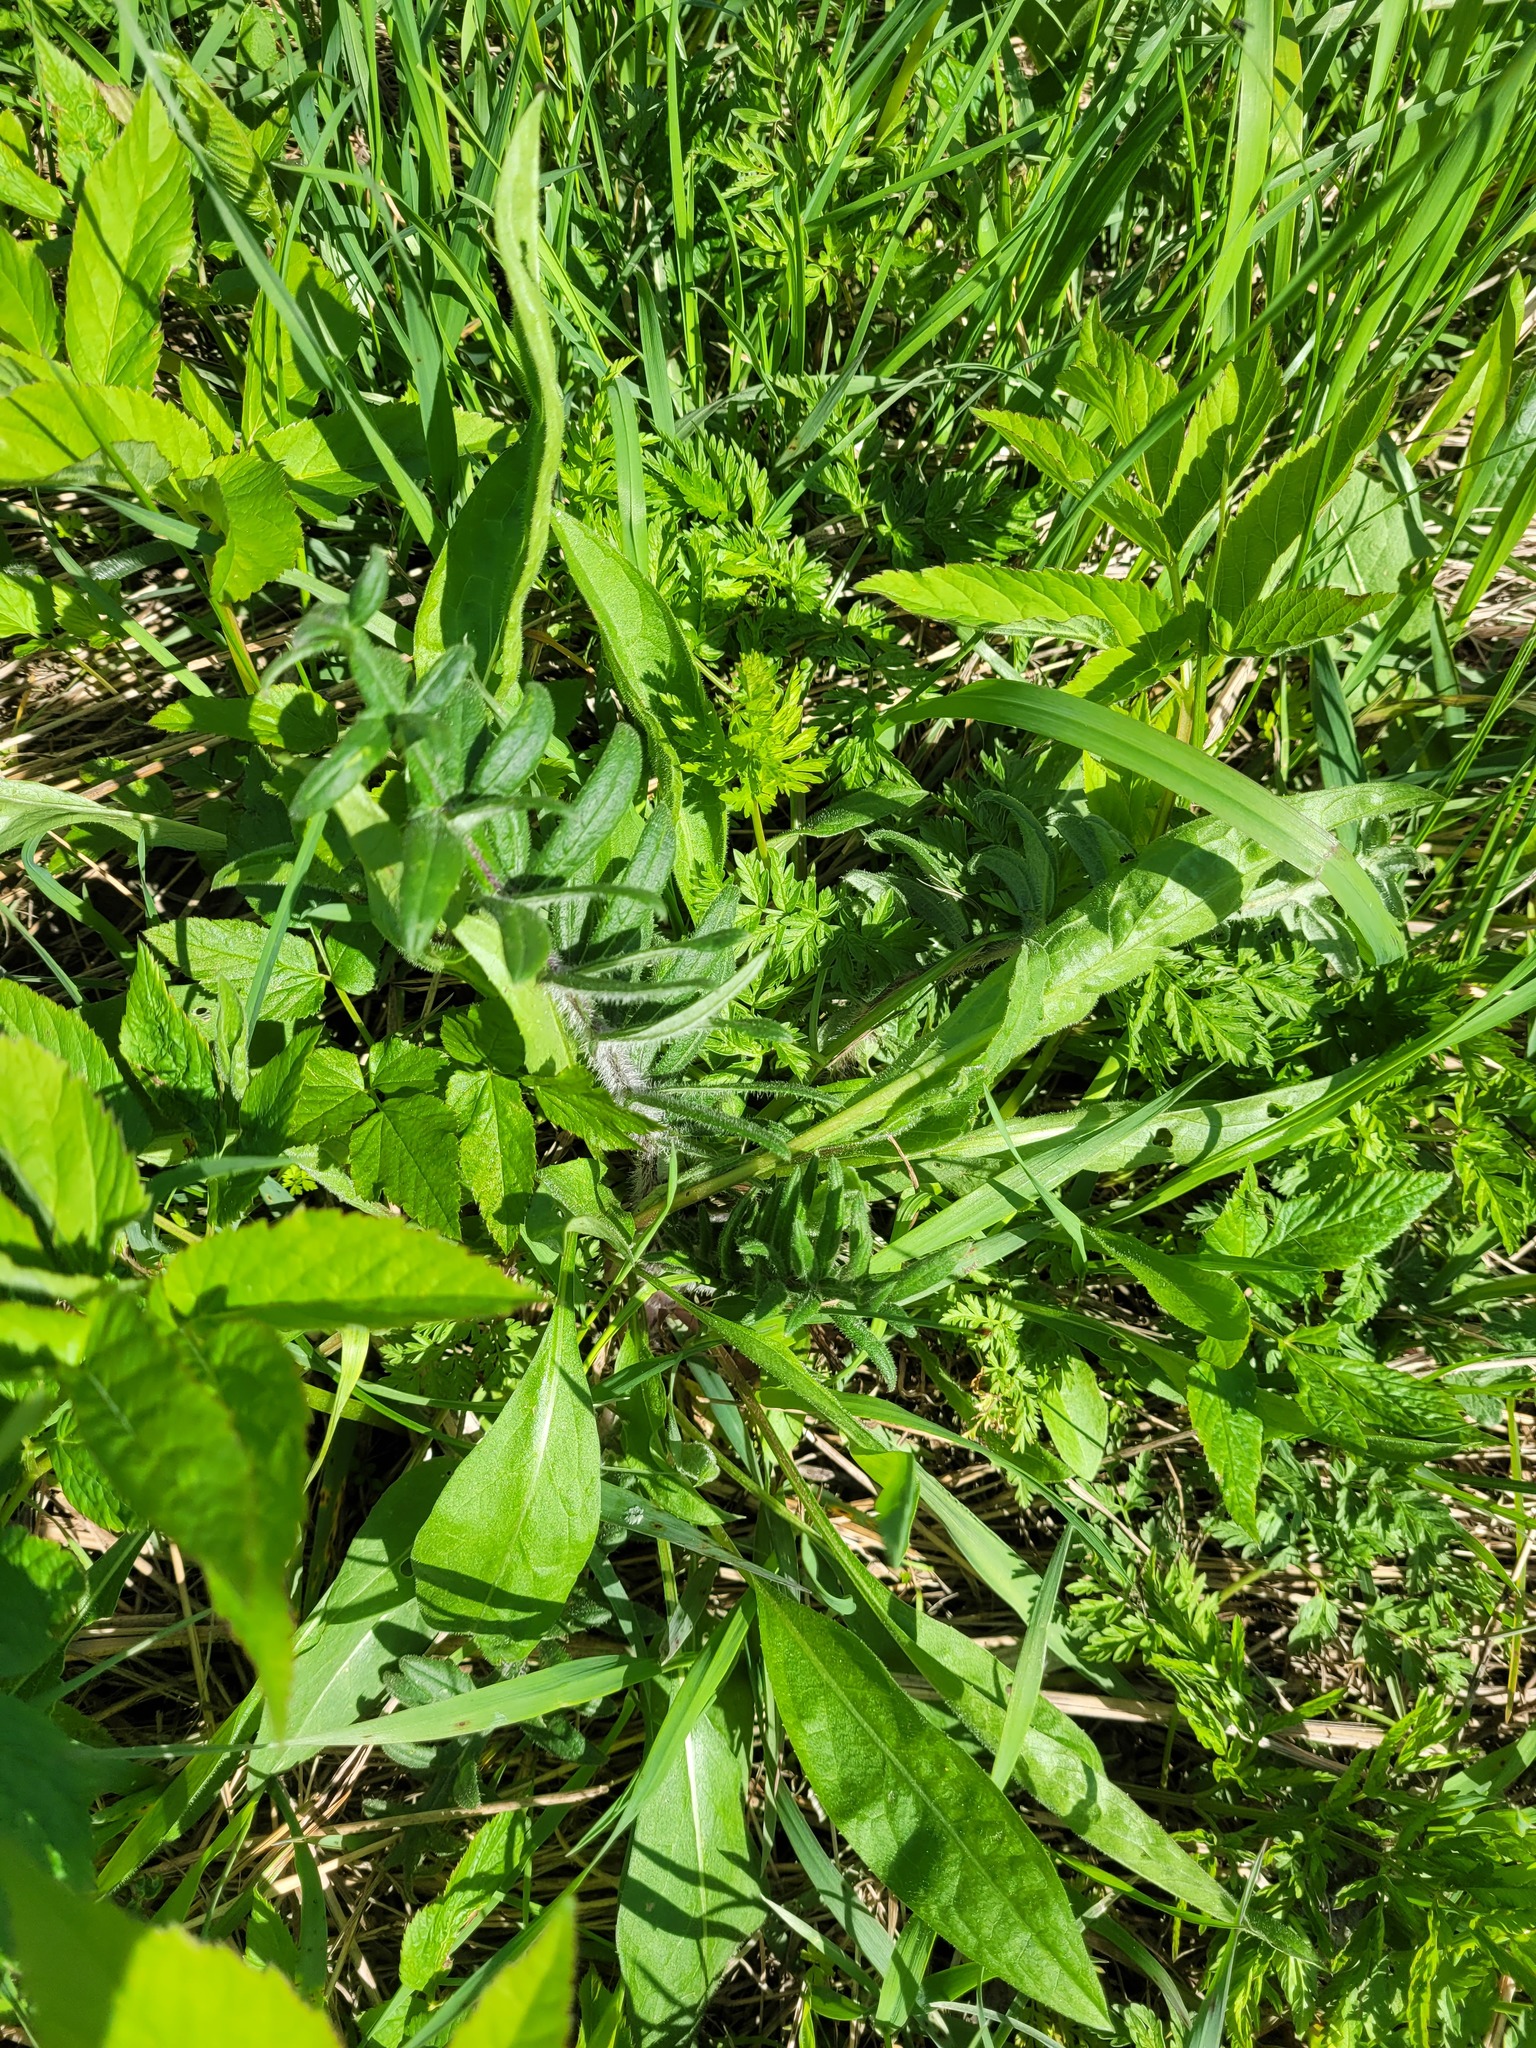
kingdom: Plantae
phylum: Tracheophyta
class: Magnoliopsida
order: Asterales
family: Asteraceae
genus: Lophiolepis
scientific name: Lophiolepis decussata
